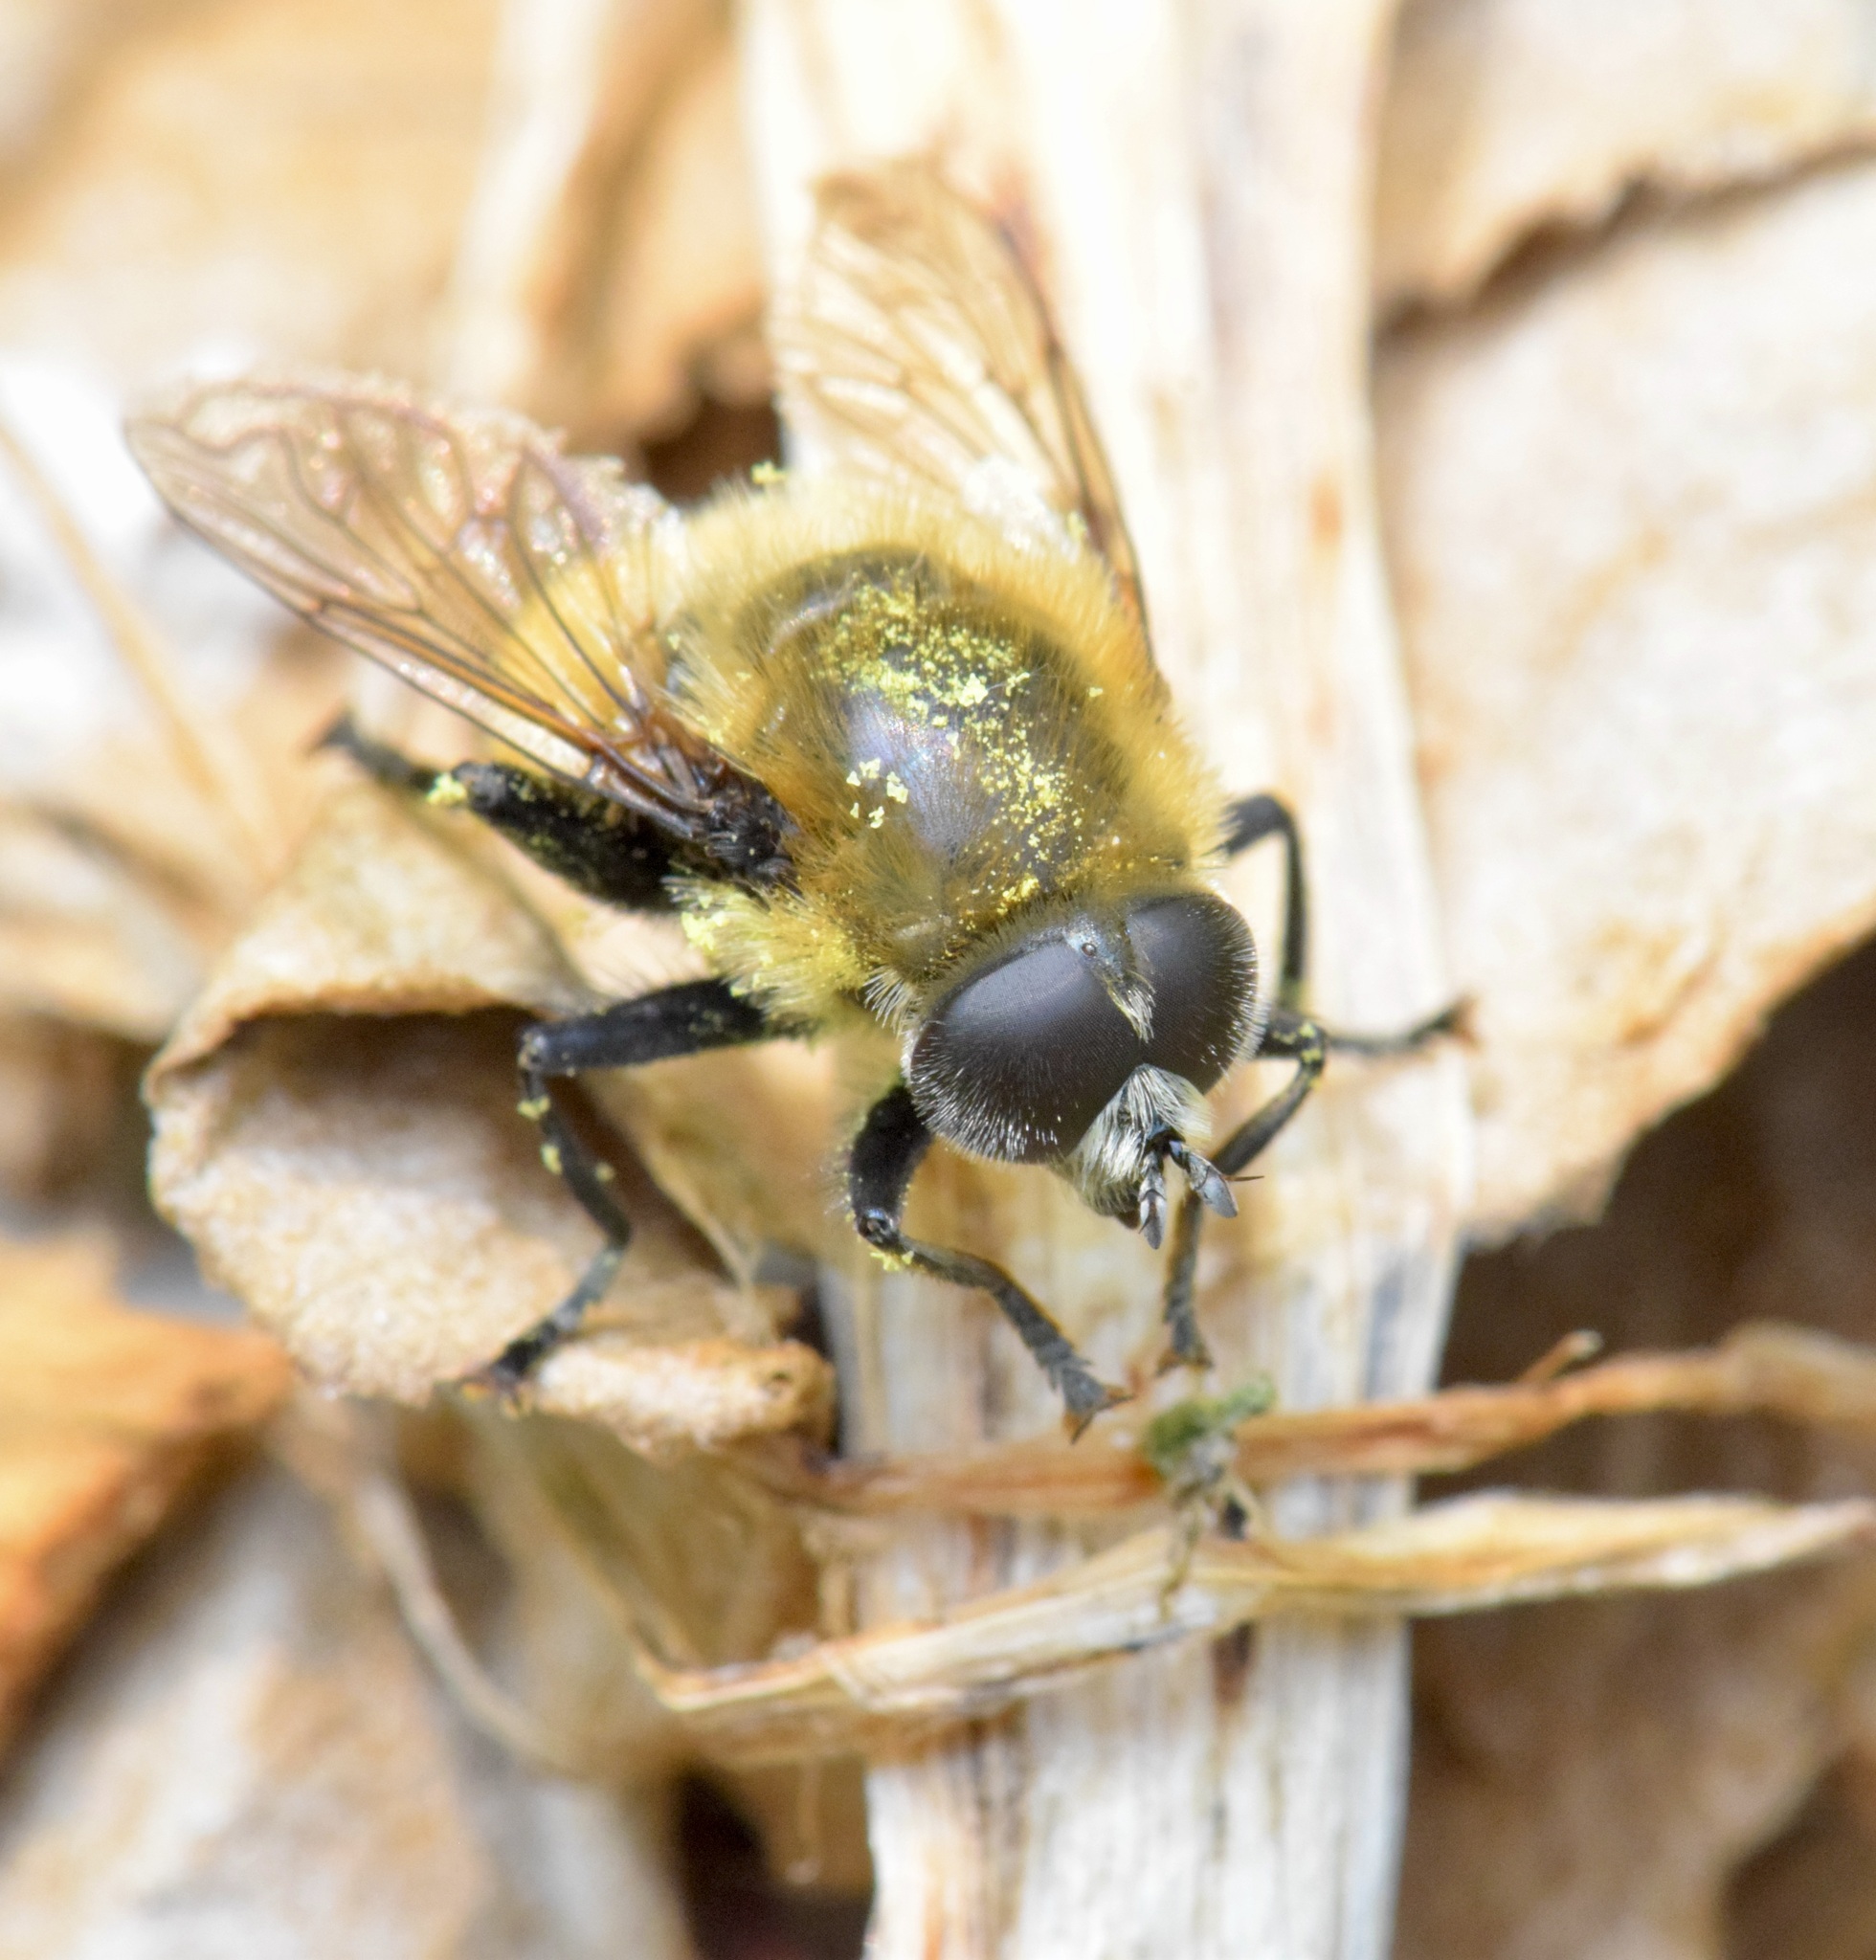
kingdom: Animalia
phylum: Arthropoda
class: Insecta
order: Diptera
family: Syrphidae
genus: Merodon
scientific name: Merodon equestris
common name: Greater bulb-fly
